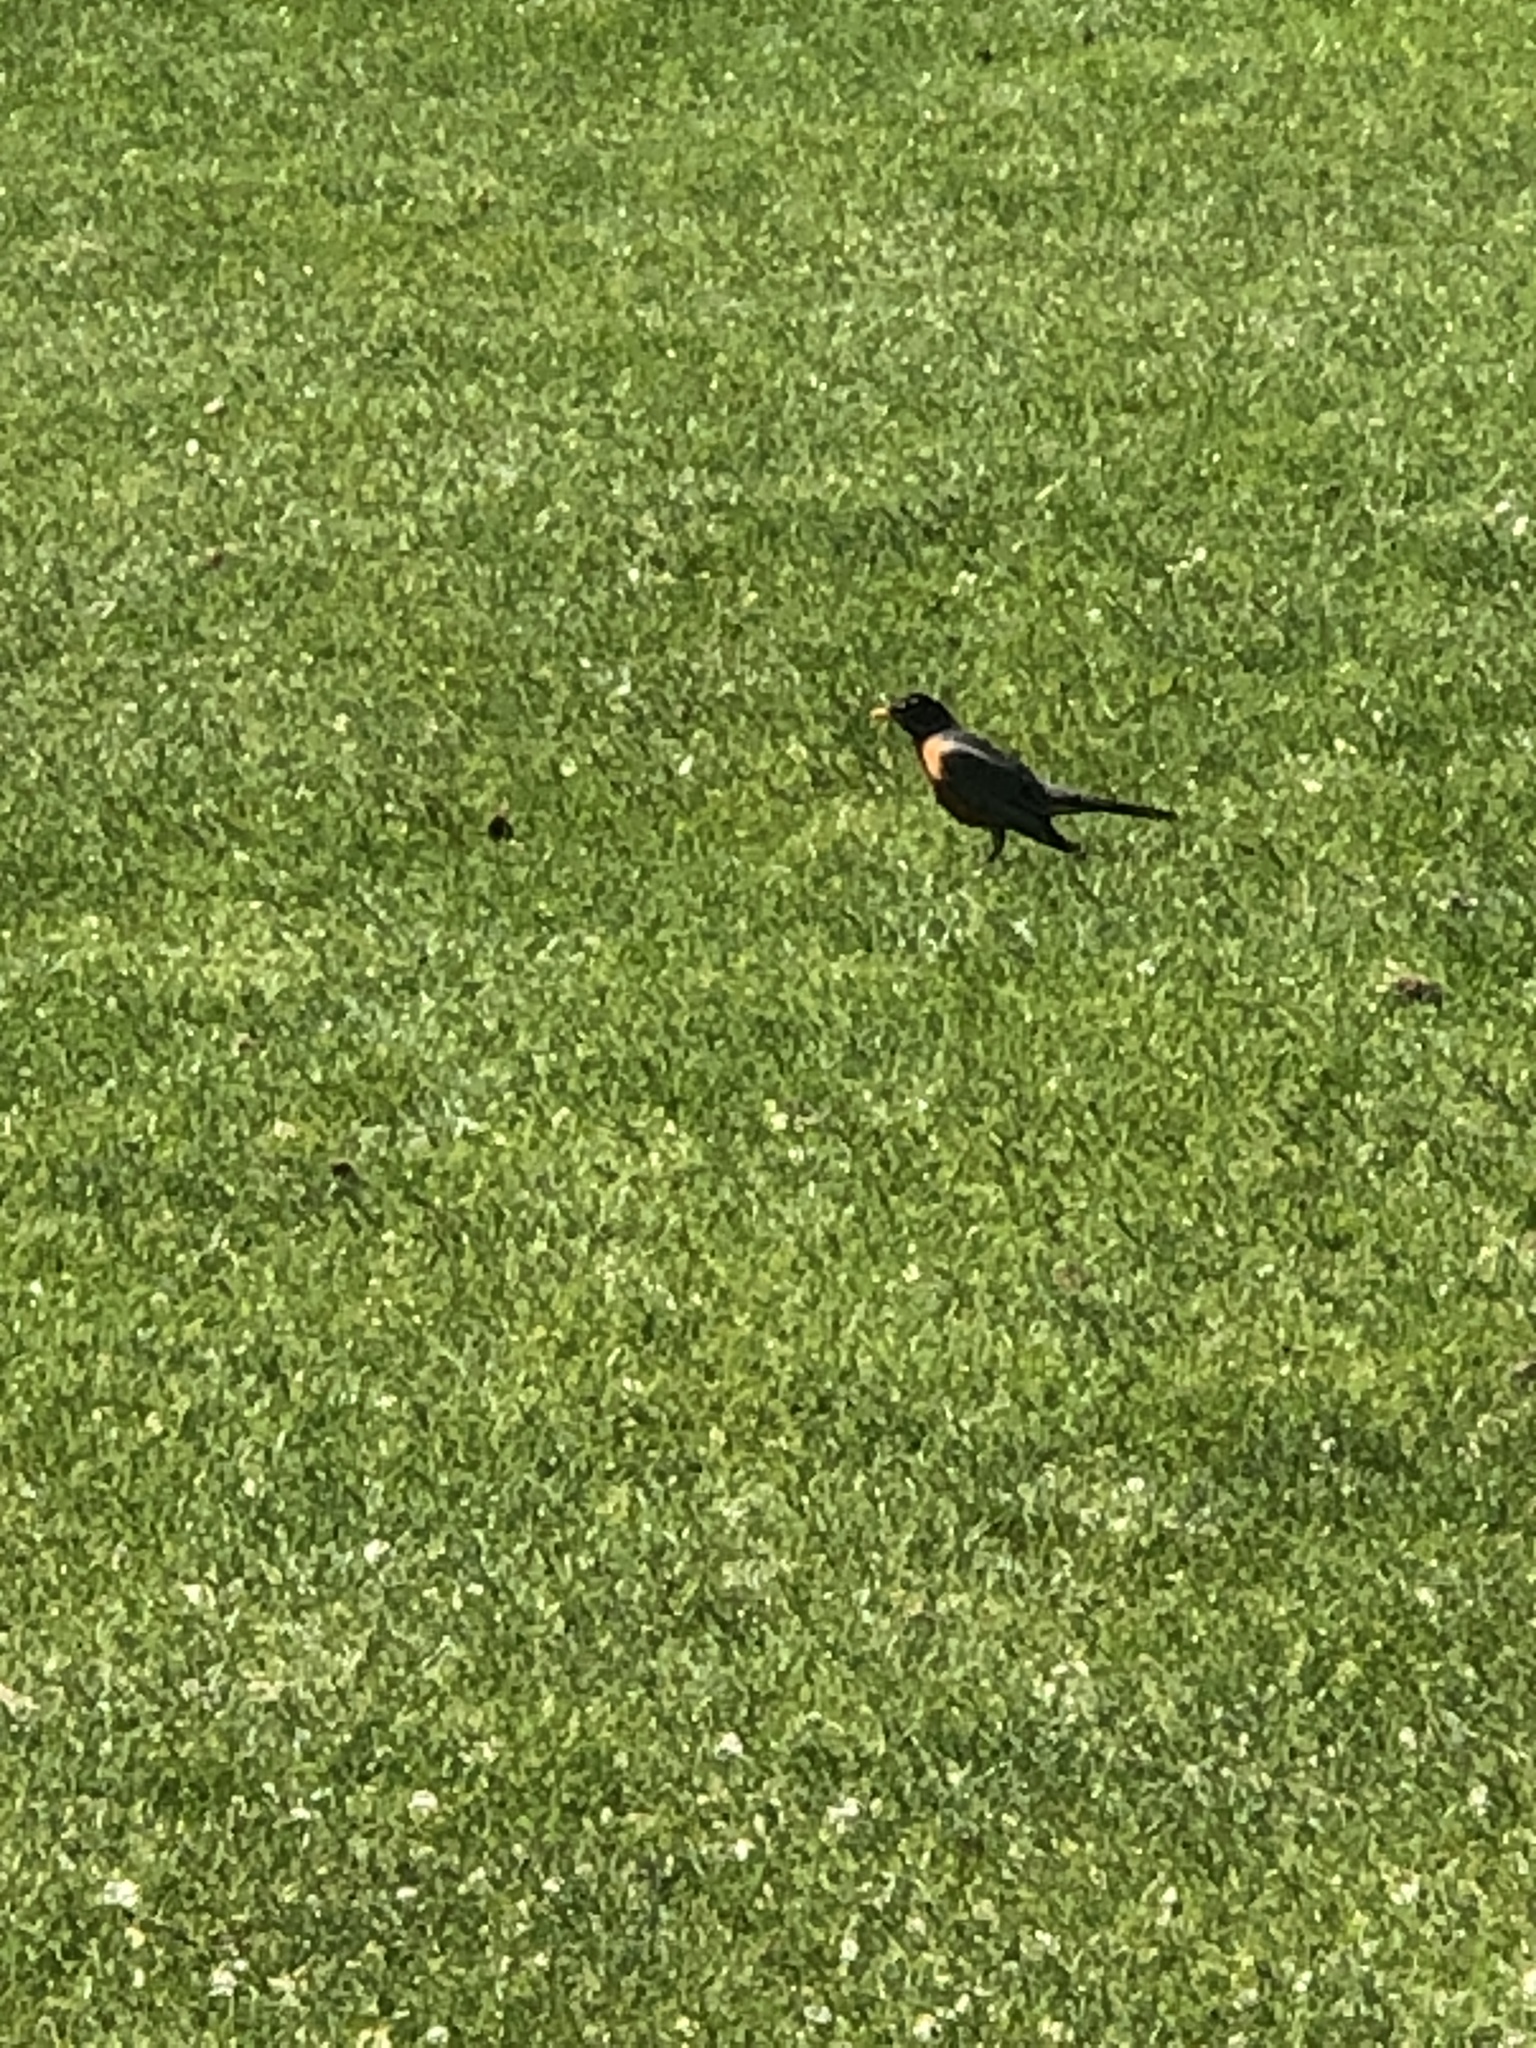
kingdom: Animalia
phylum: Chordata
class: Aves
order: Passeriformes
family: Turdidae
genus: Turdus
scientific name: Turdus migratorius
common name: American robin
